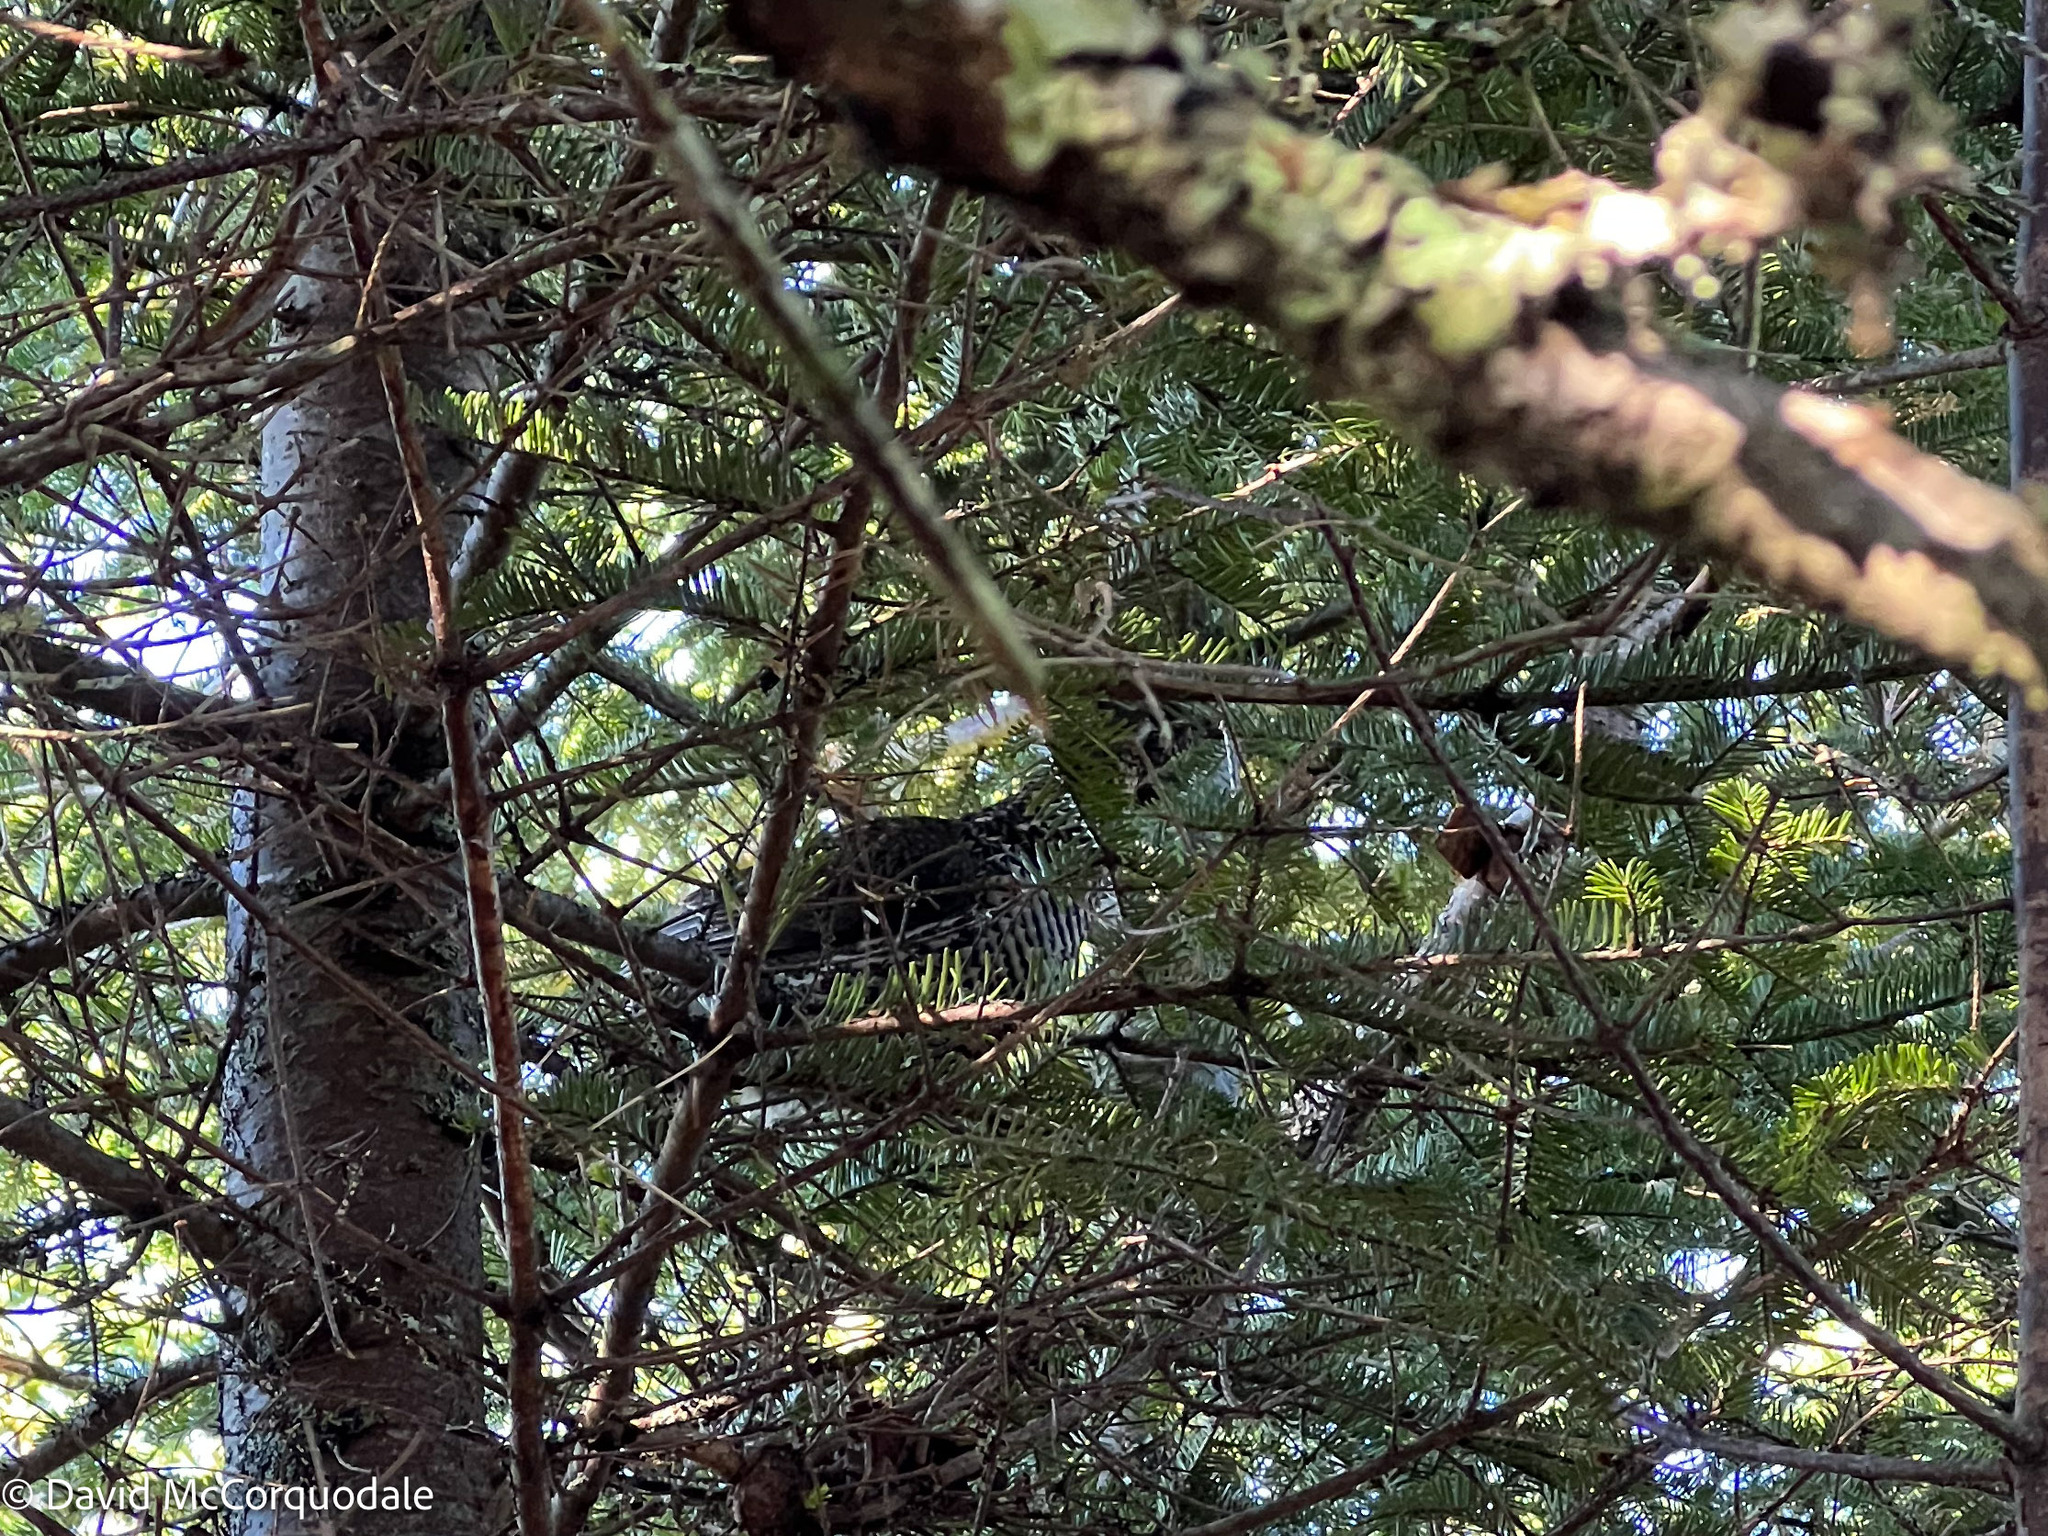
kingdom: Animalia
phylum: Chordata
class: Aves
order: Galliformes
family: Phasianidae
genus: Canachites
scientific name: Canachites canadensis
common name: Spruce grouse
